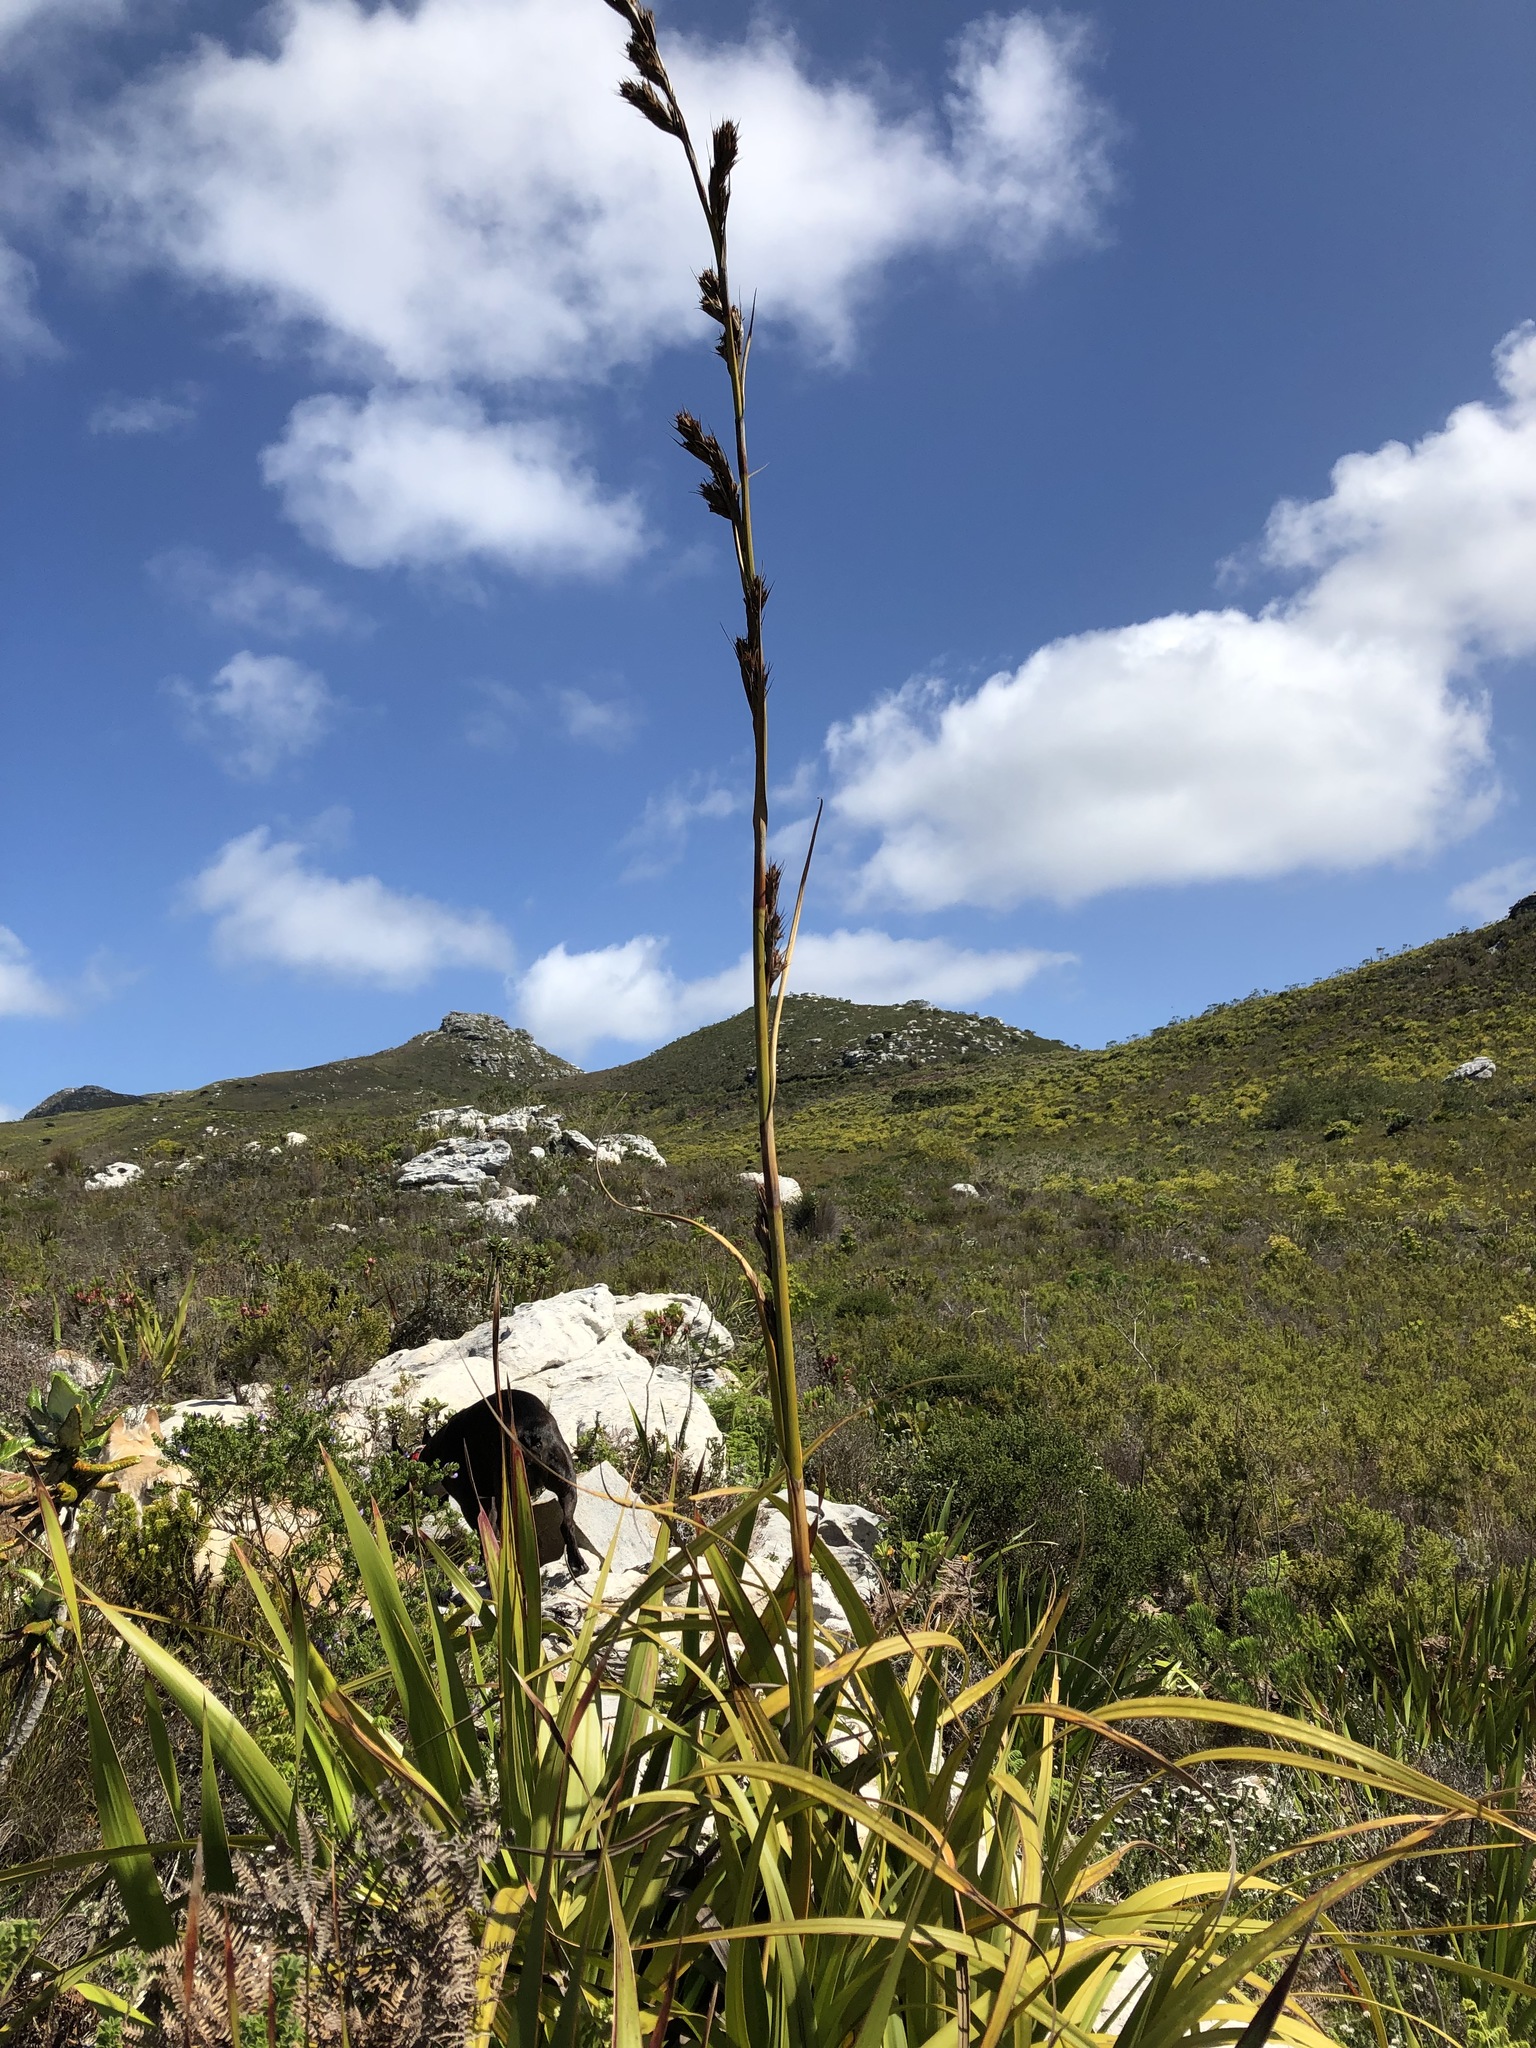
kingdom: Plantae
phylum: Tracheophyta
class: Liliopsida
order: Poales
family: Cyperaceae
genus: Tetraria
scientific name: Tetraria thermalis
